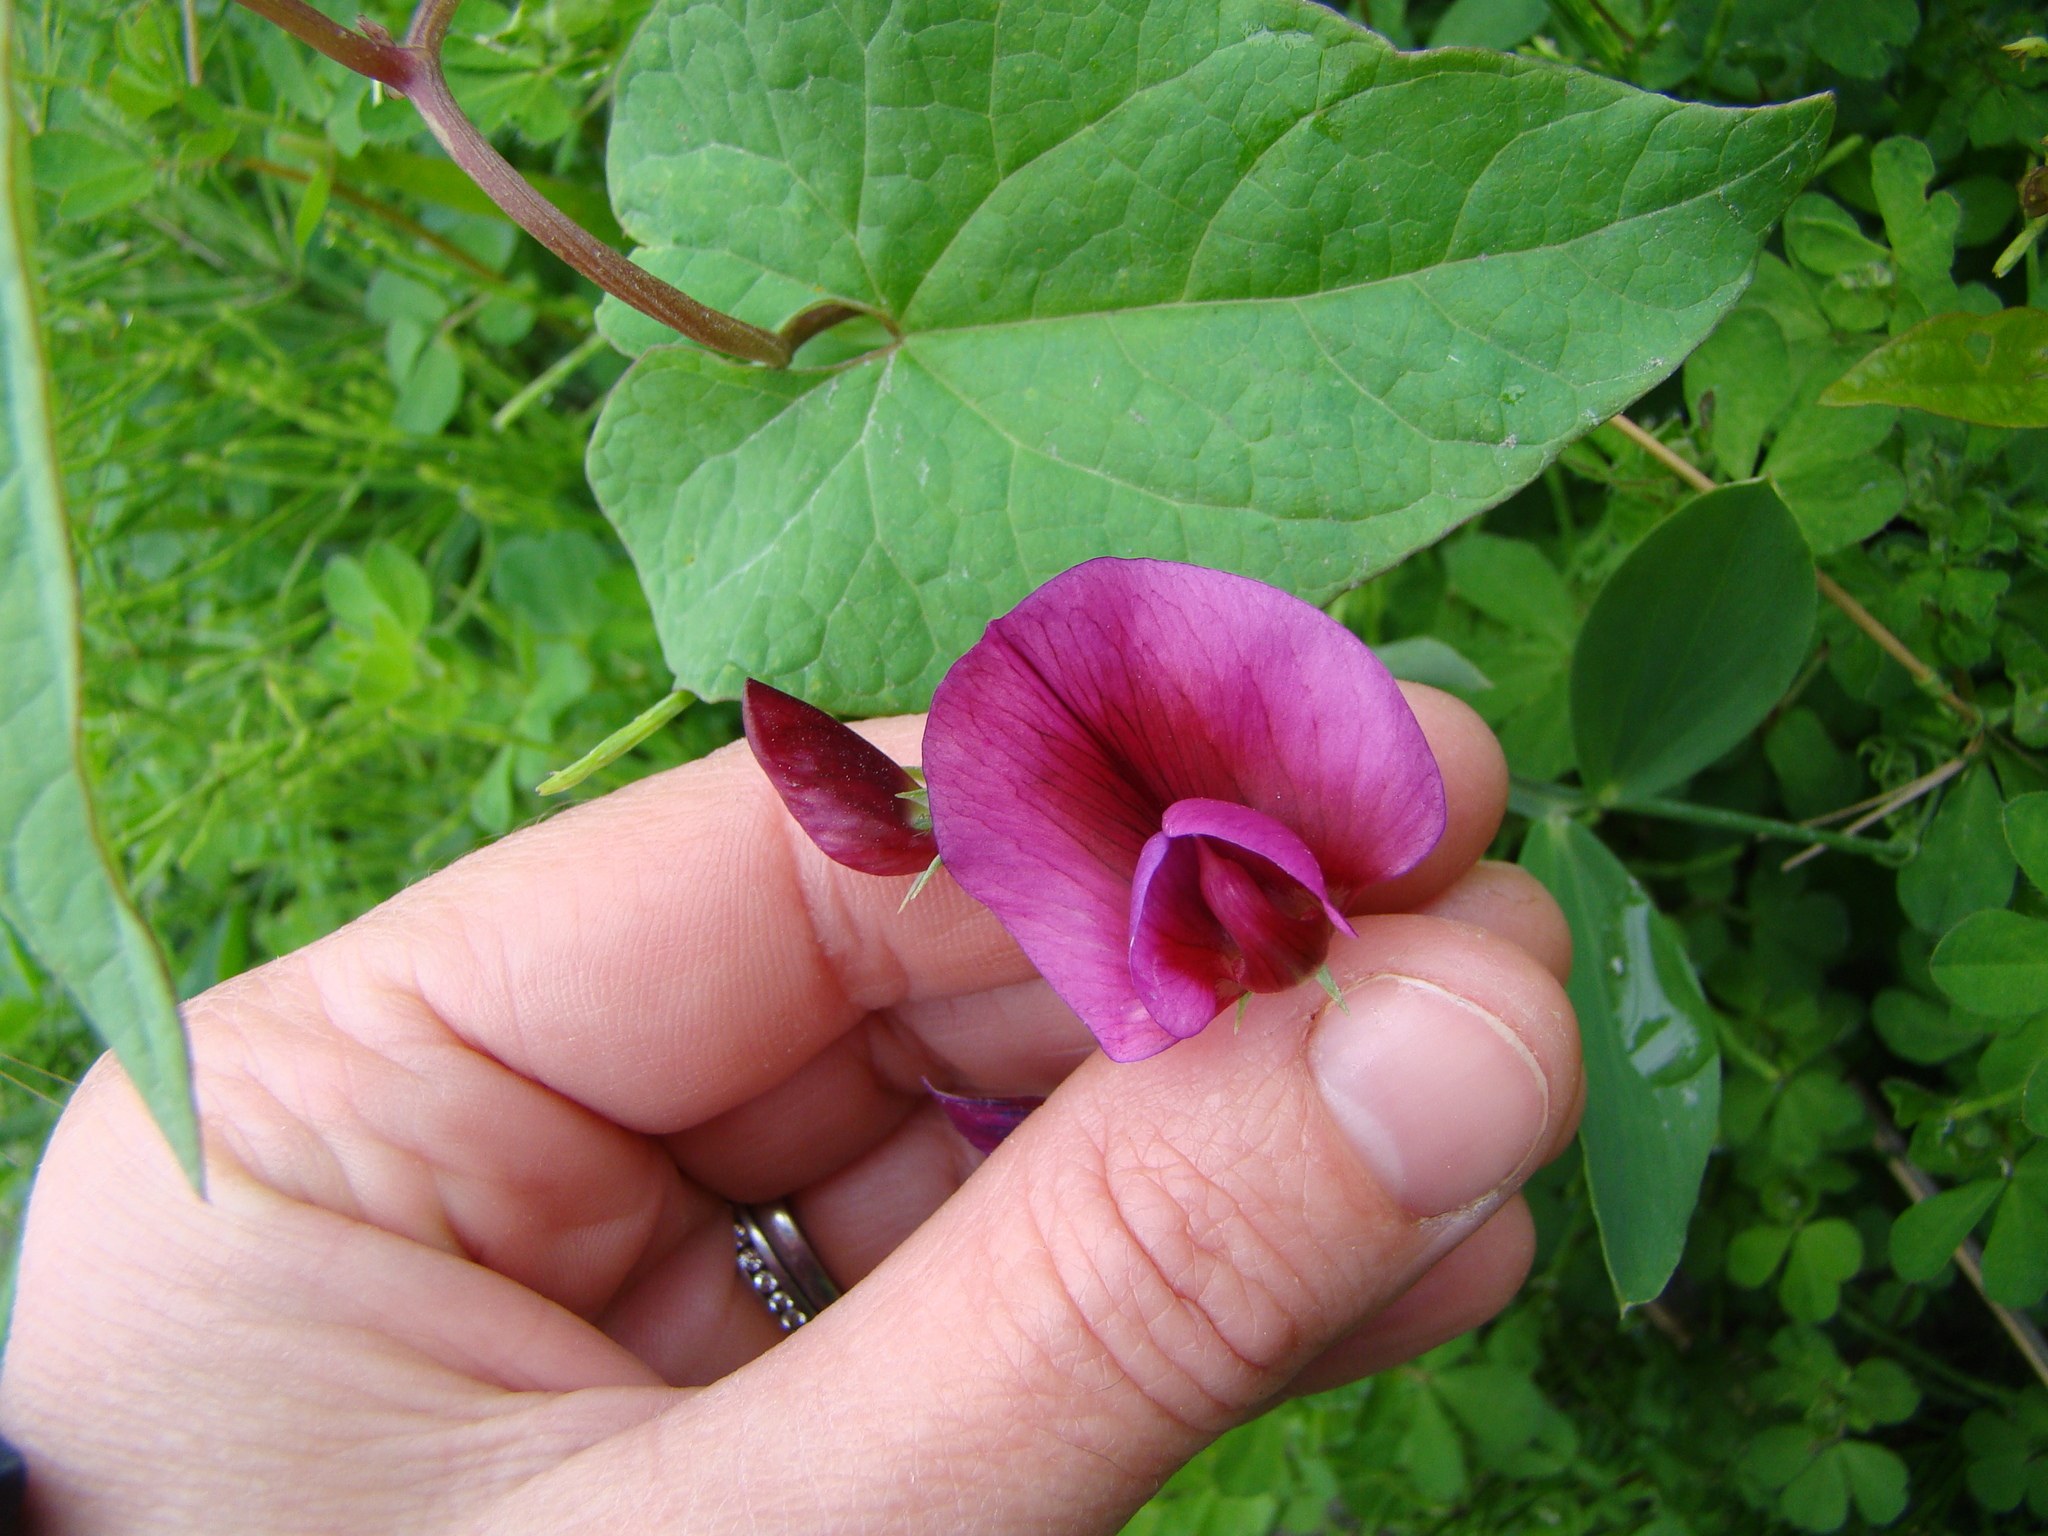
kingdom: Plantae
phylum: Tracheophyta
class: Magnoliopsida
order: Fabales
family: Fabaceae
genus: Lathyrus
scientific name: Lathyrus tingitanus
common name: Tangier pea
